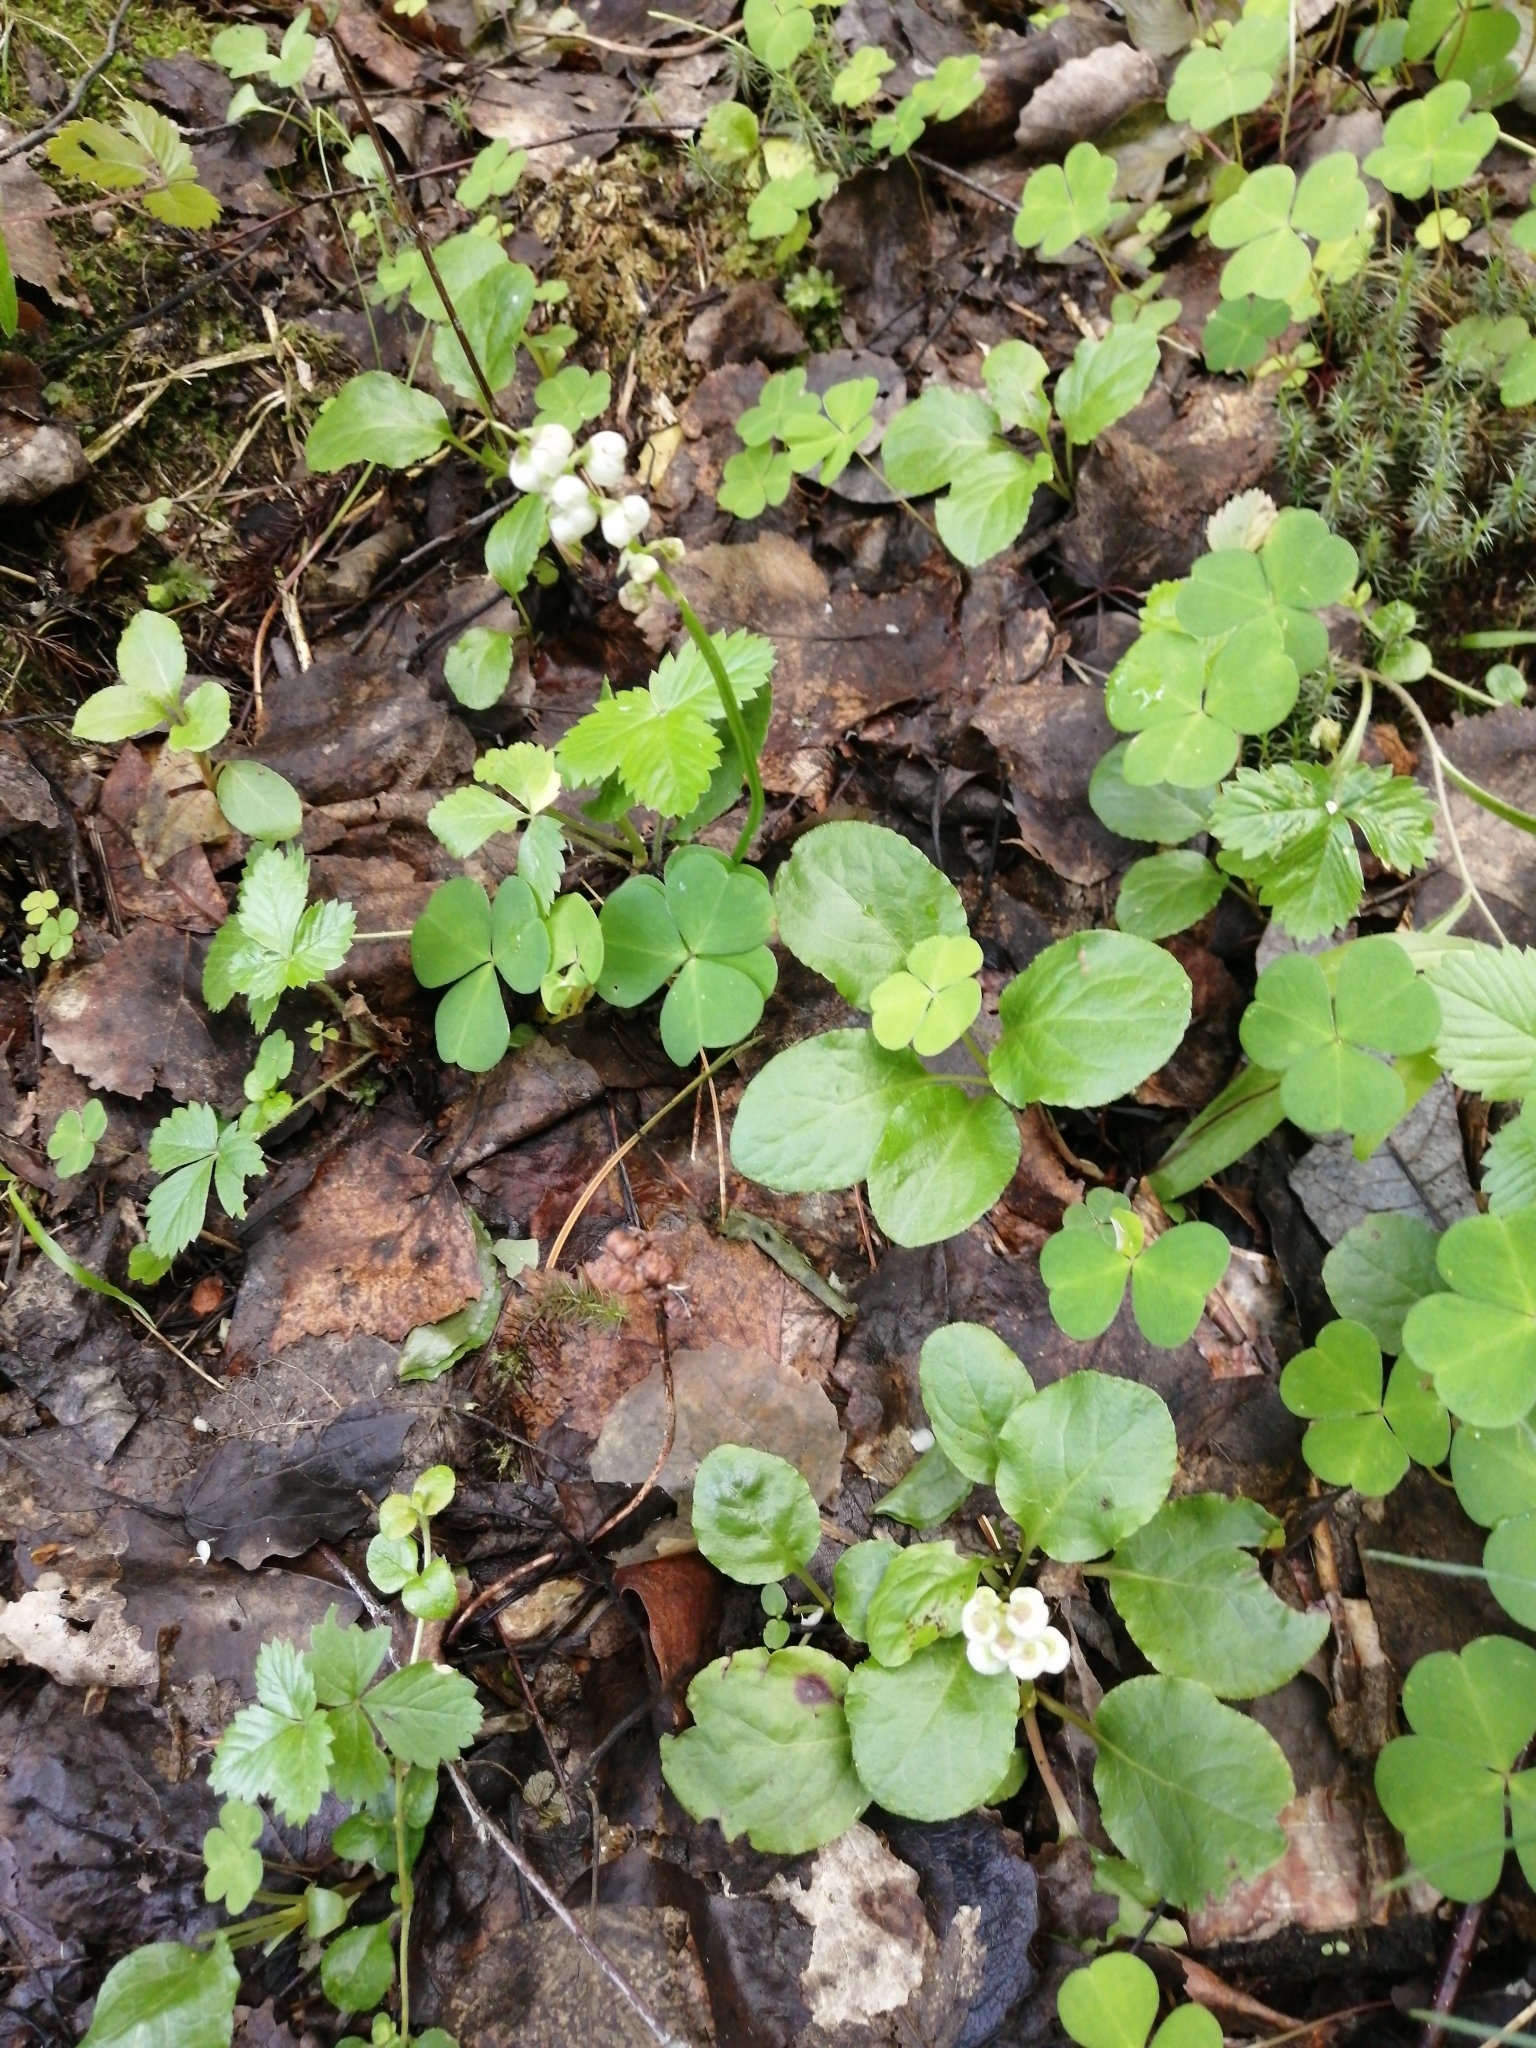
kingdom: Plantae
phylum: Tracheophyta
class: Magnoliopsida
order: Oxalidales
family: Oxalidaceae
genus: Oxalis
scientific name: Oxalis acetosella
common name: Wood-sorrel
